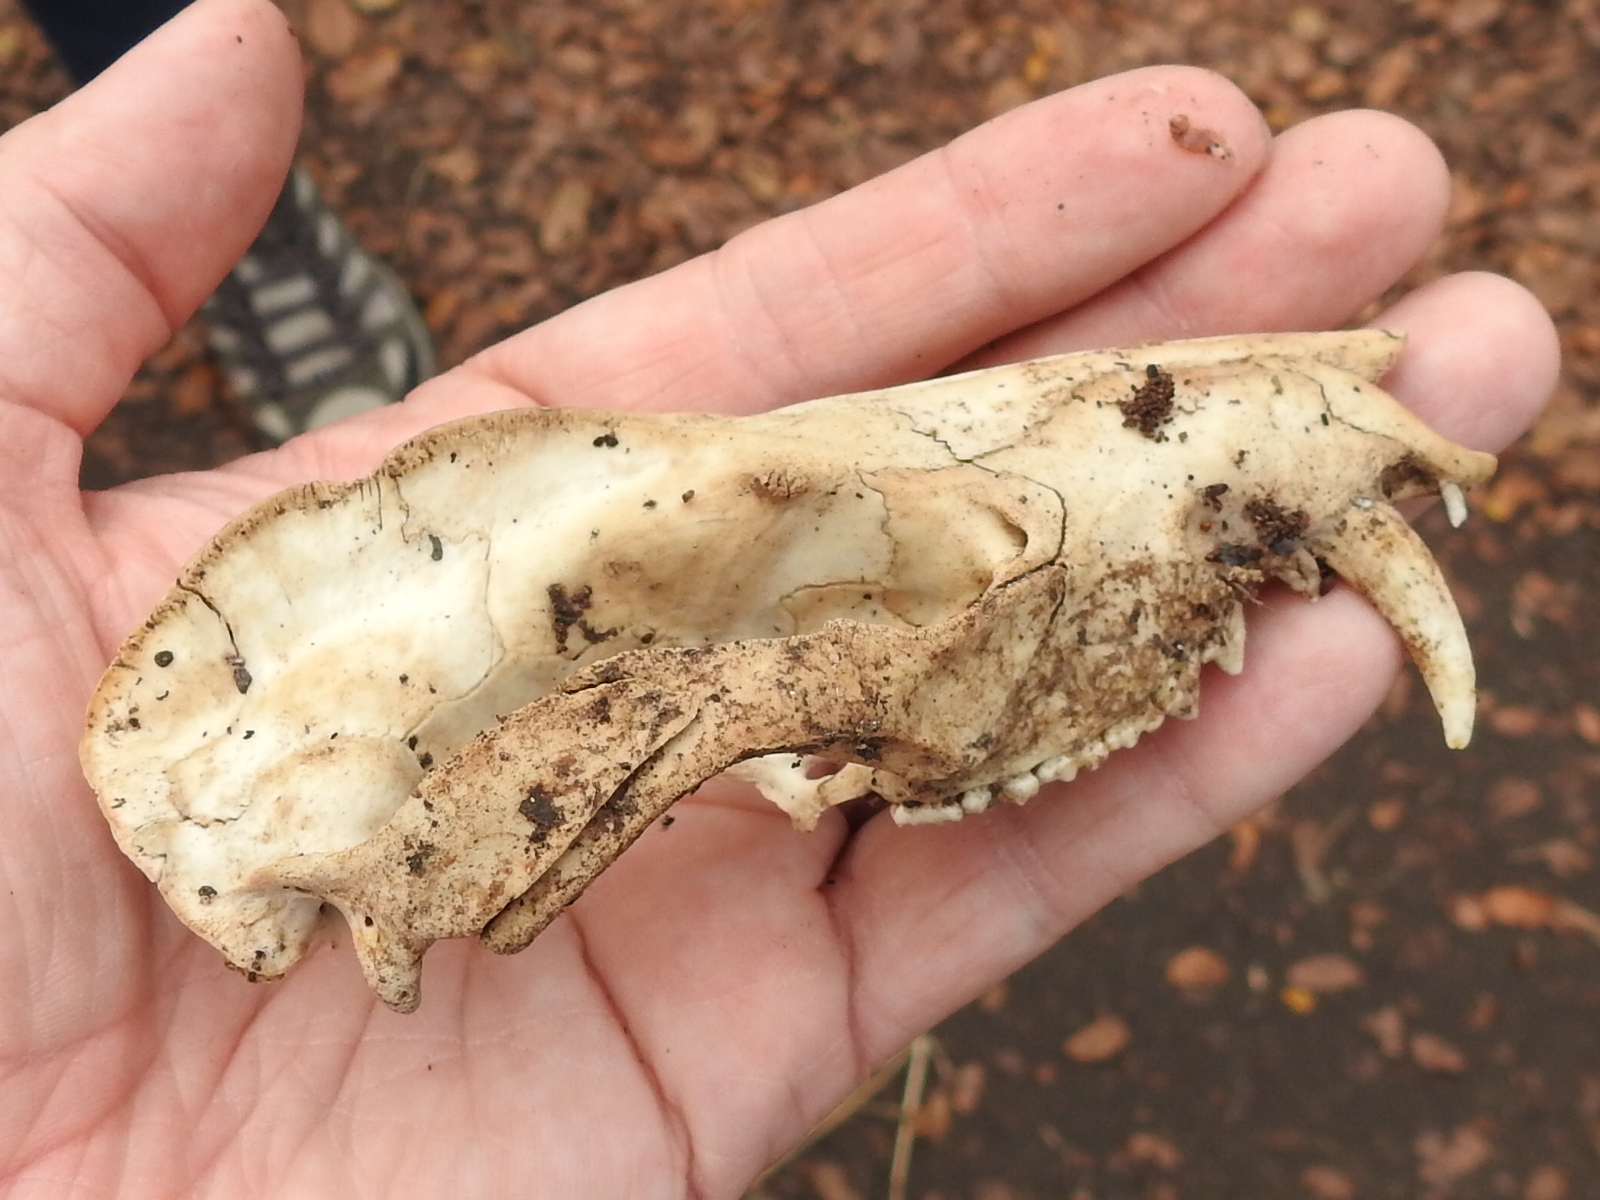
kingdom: Animalia
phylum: Chordata
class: Mammalia
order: Didelphimorphia
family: Didelphidae
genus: Didelphis
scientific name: Didelphis virginiana
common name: Virginia opossum
